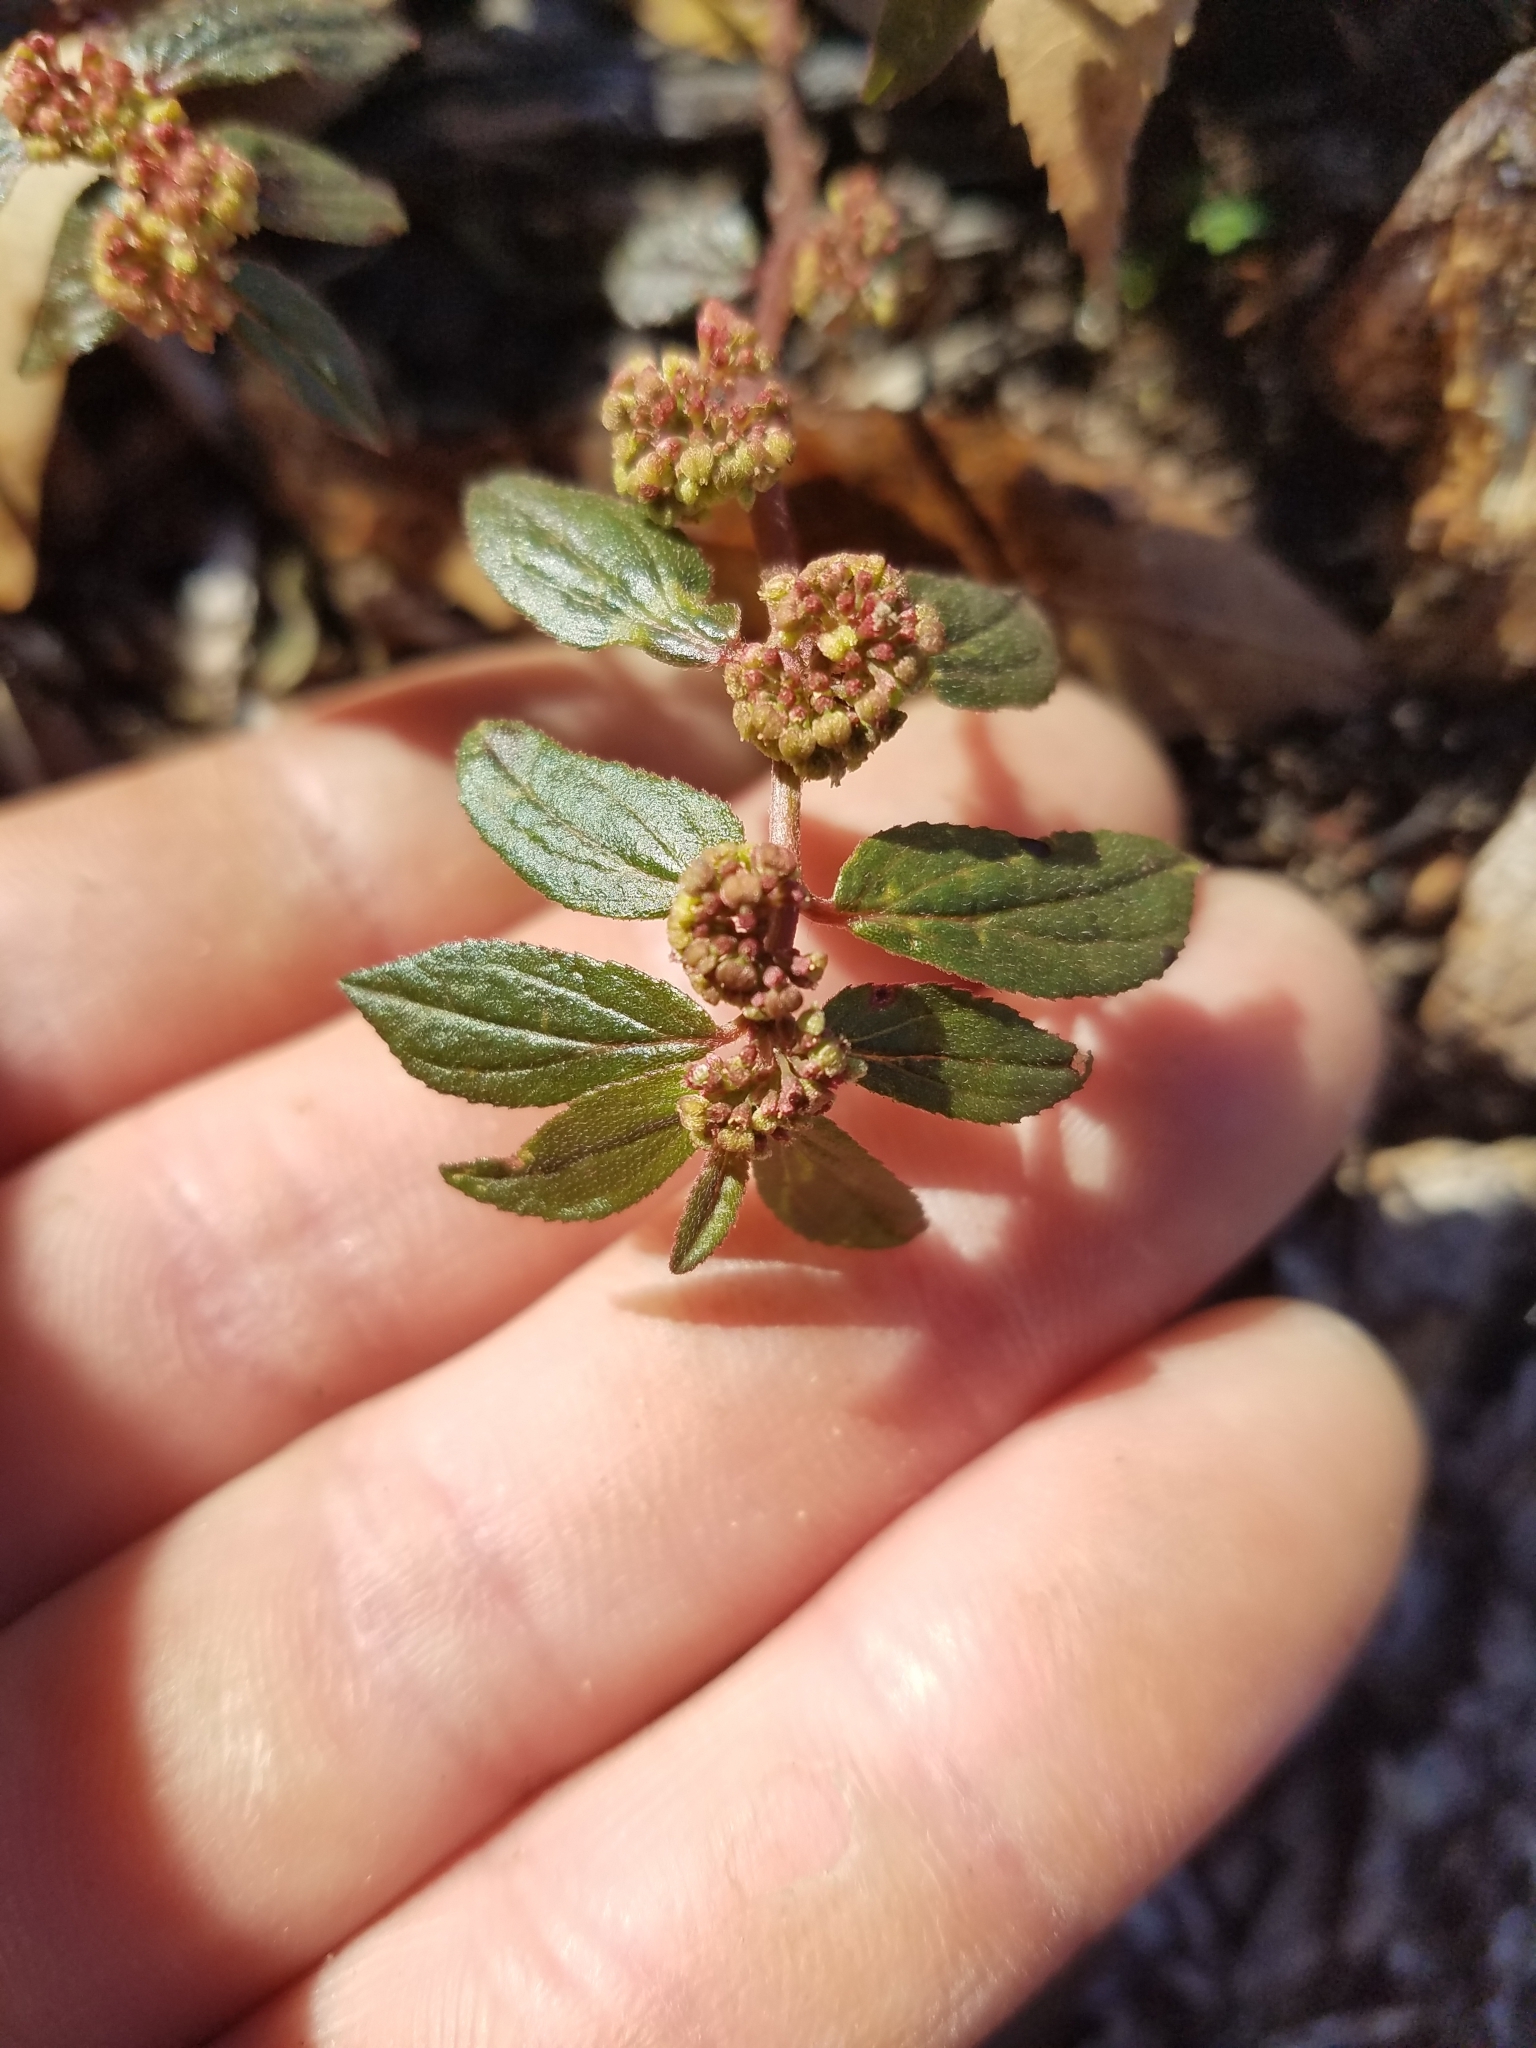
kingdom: Plantae
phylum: Tracheophyta
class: Magnoliopsida
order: Malpighiales
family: Euphorbiaceae
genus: Euphorbia
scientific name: Euphorbia hirta
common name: Pillpod sandmat
